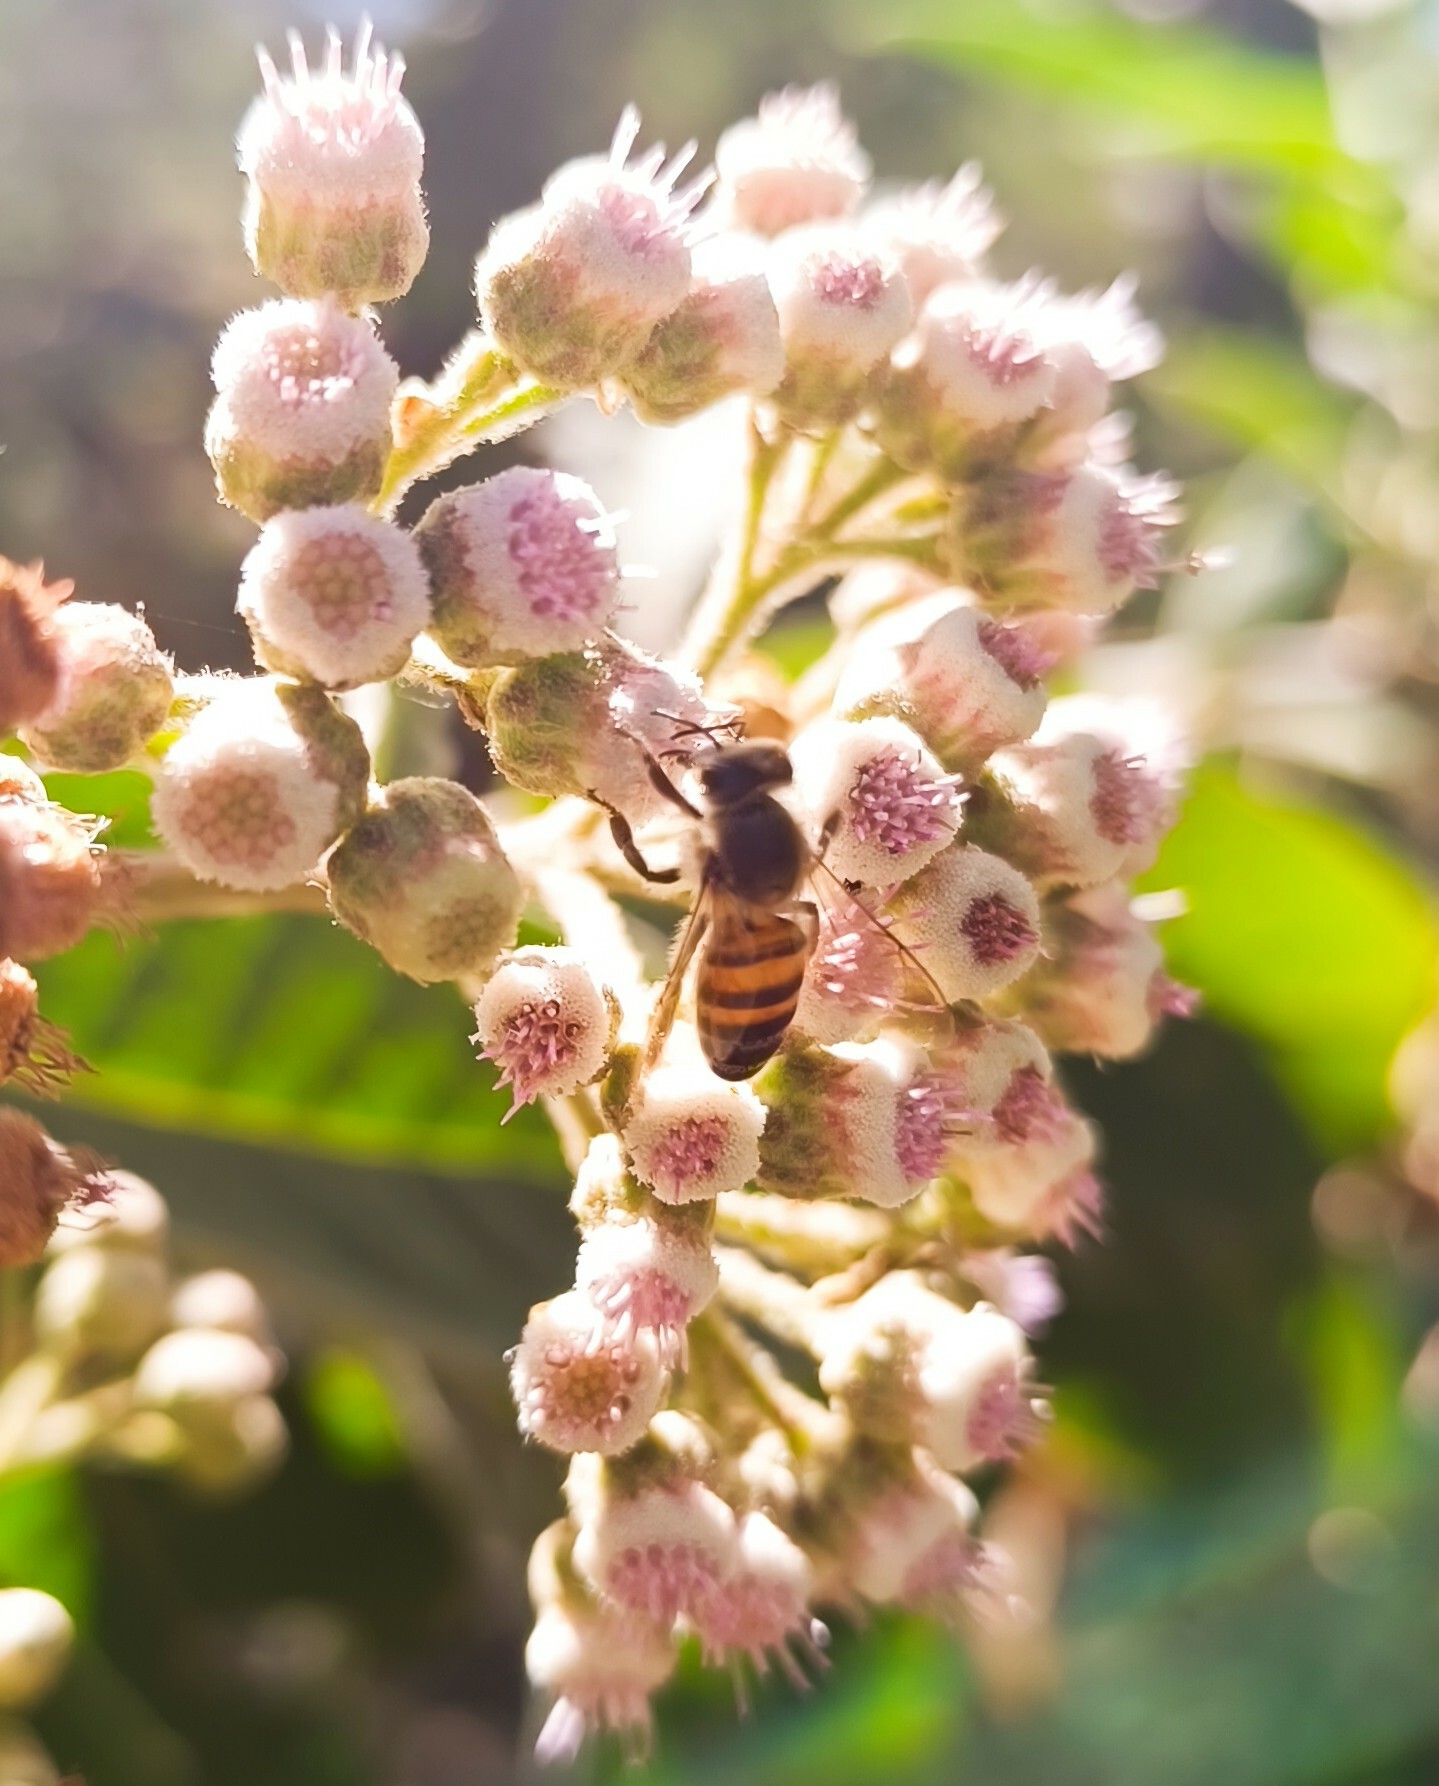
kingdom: Plantae
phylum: Tracheophyta
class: Magnoliopsida
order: Asterales
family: Asteraceae
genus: Pluchea
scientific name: Pluchea carolinensis
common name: Marsh fleabane
